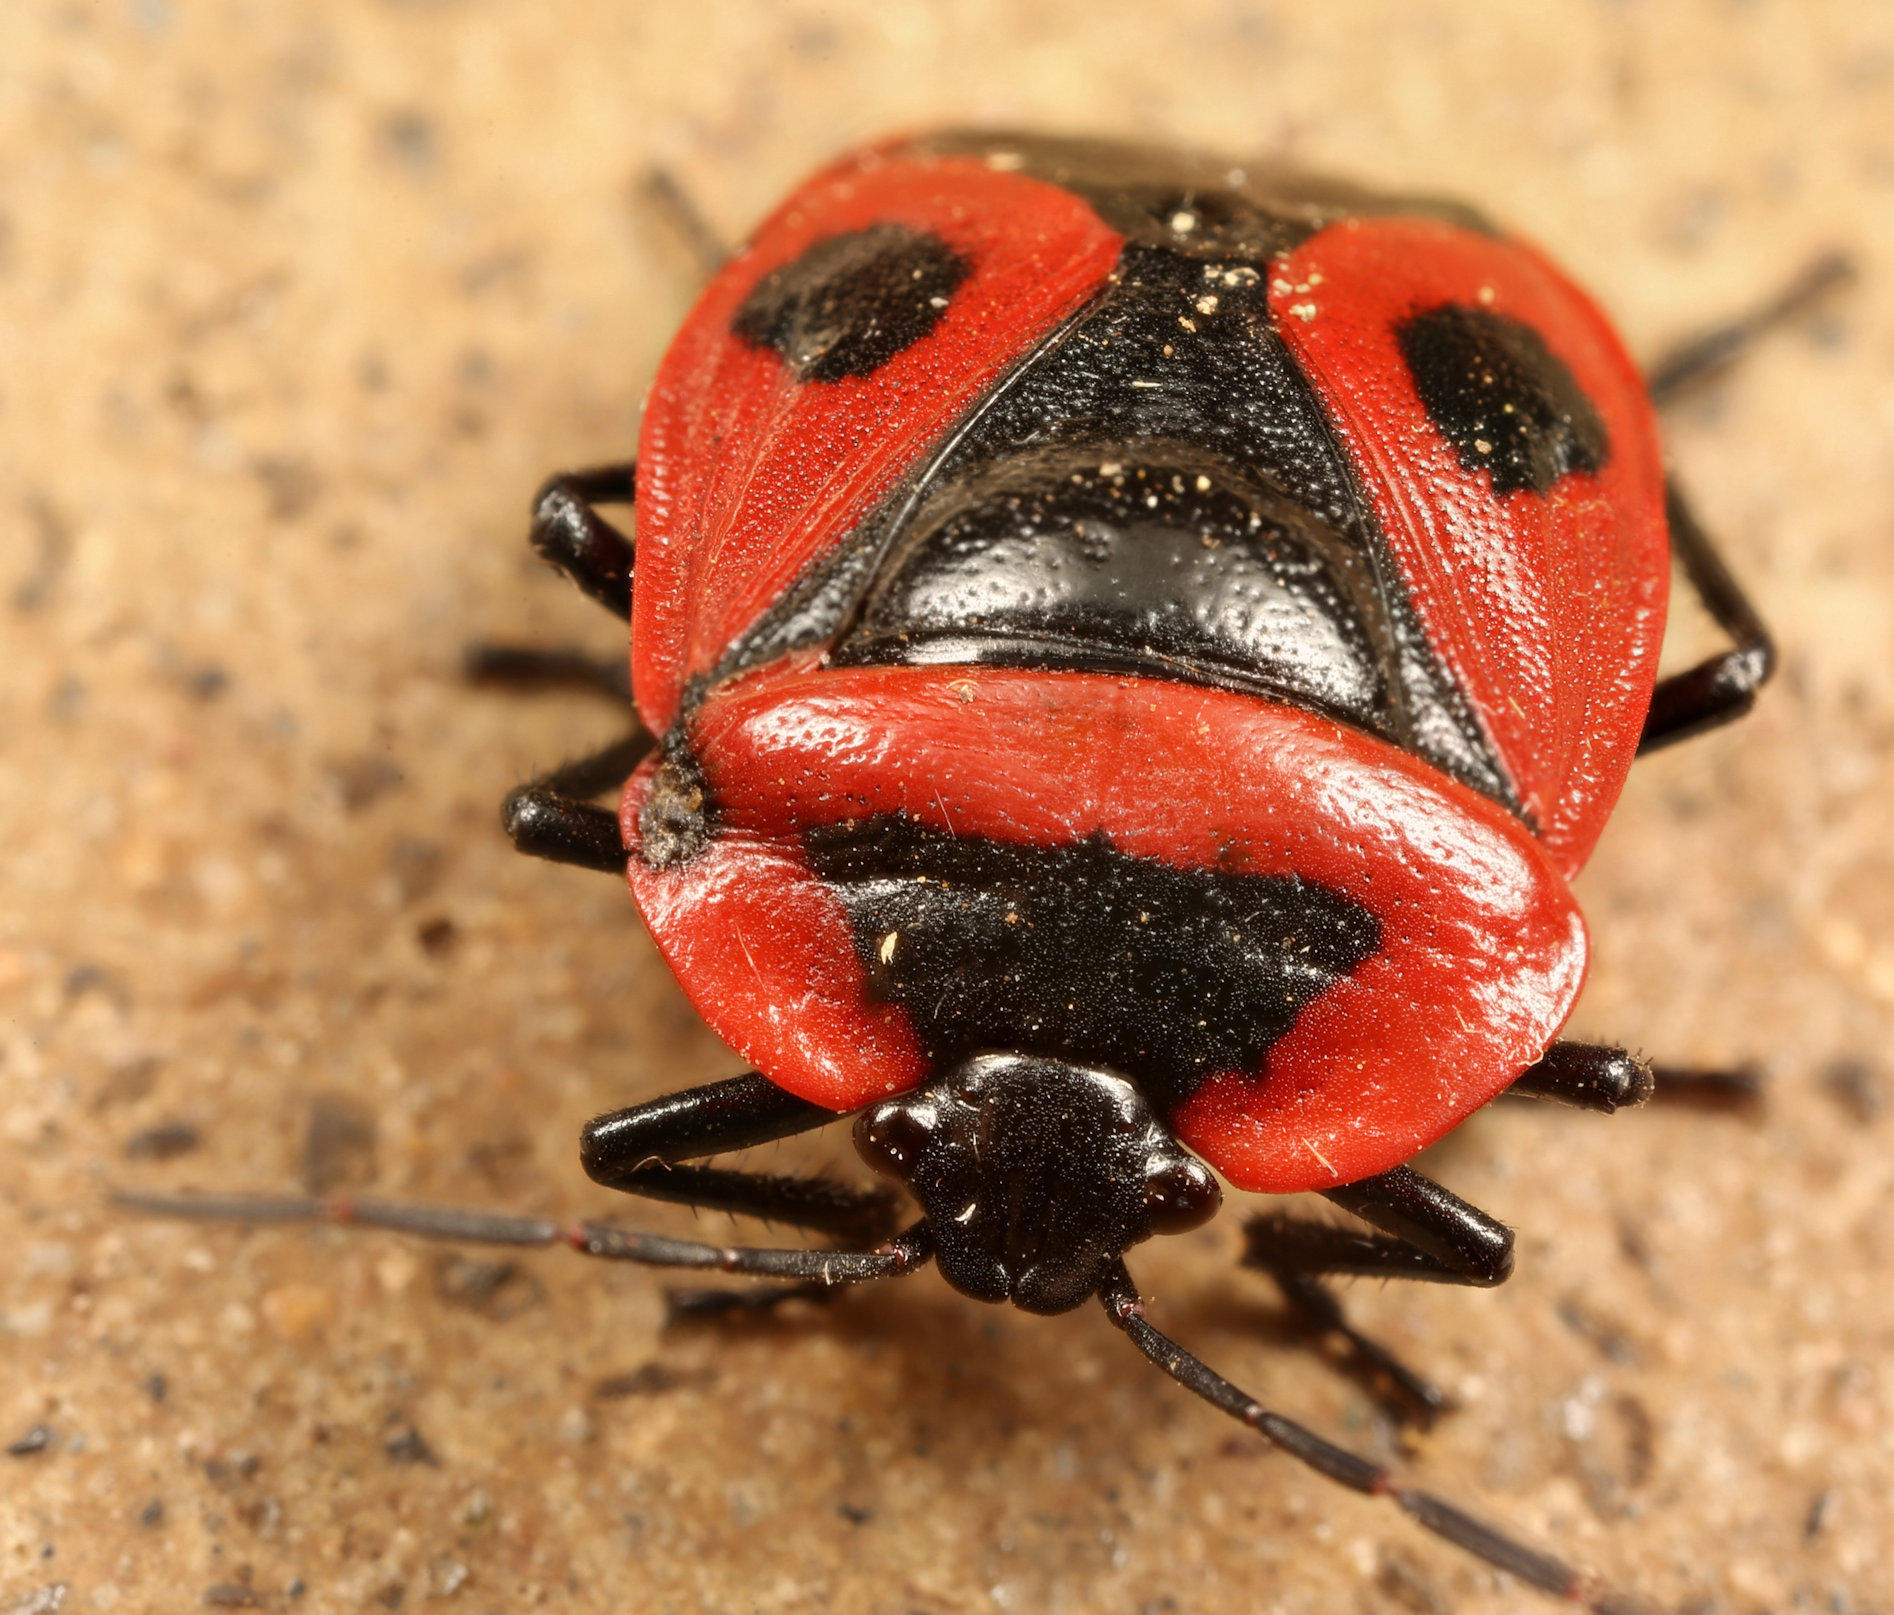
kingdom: Animalia
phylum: Arthropoda
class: Insecta
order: Hemiptera
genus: Dismegistus
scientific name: Dismegistus
